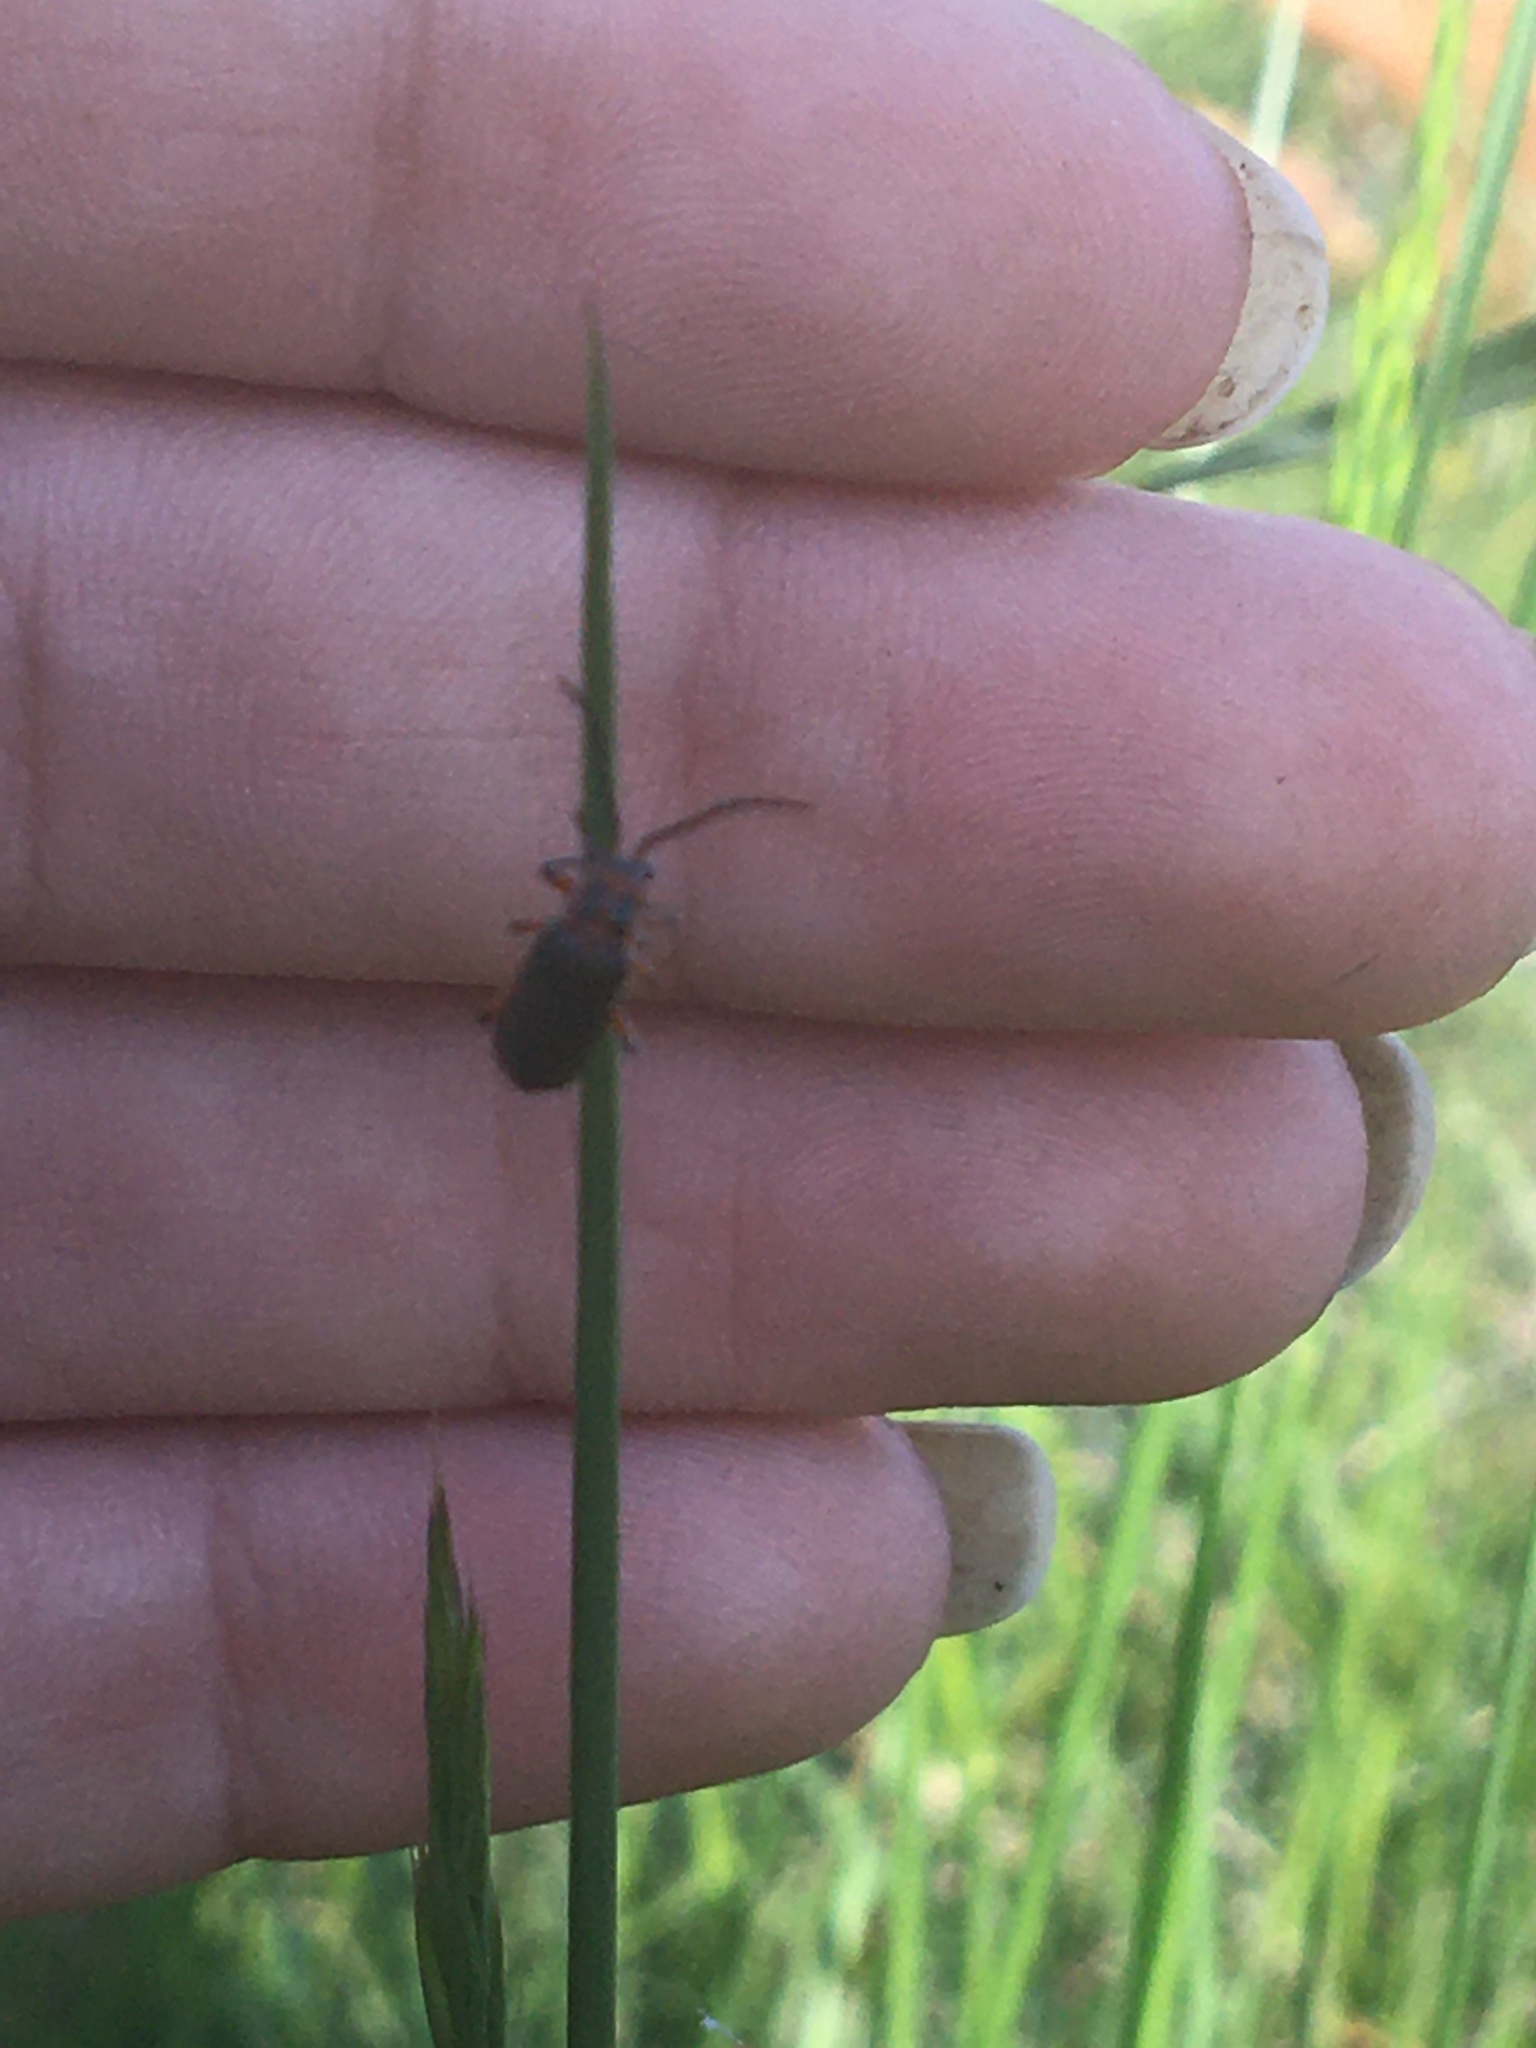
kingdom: Animalia
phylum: Arthropoda
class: Insecta
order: Coleoptera
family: Cantharidae
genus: Atalantycha
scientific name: Atalantycha bilineata
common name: Two-lined leatherwing
